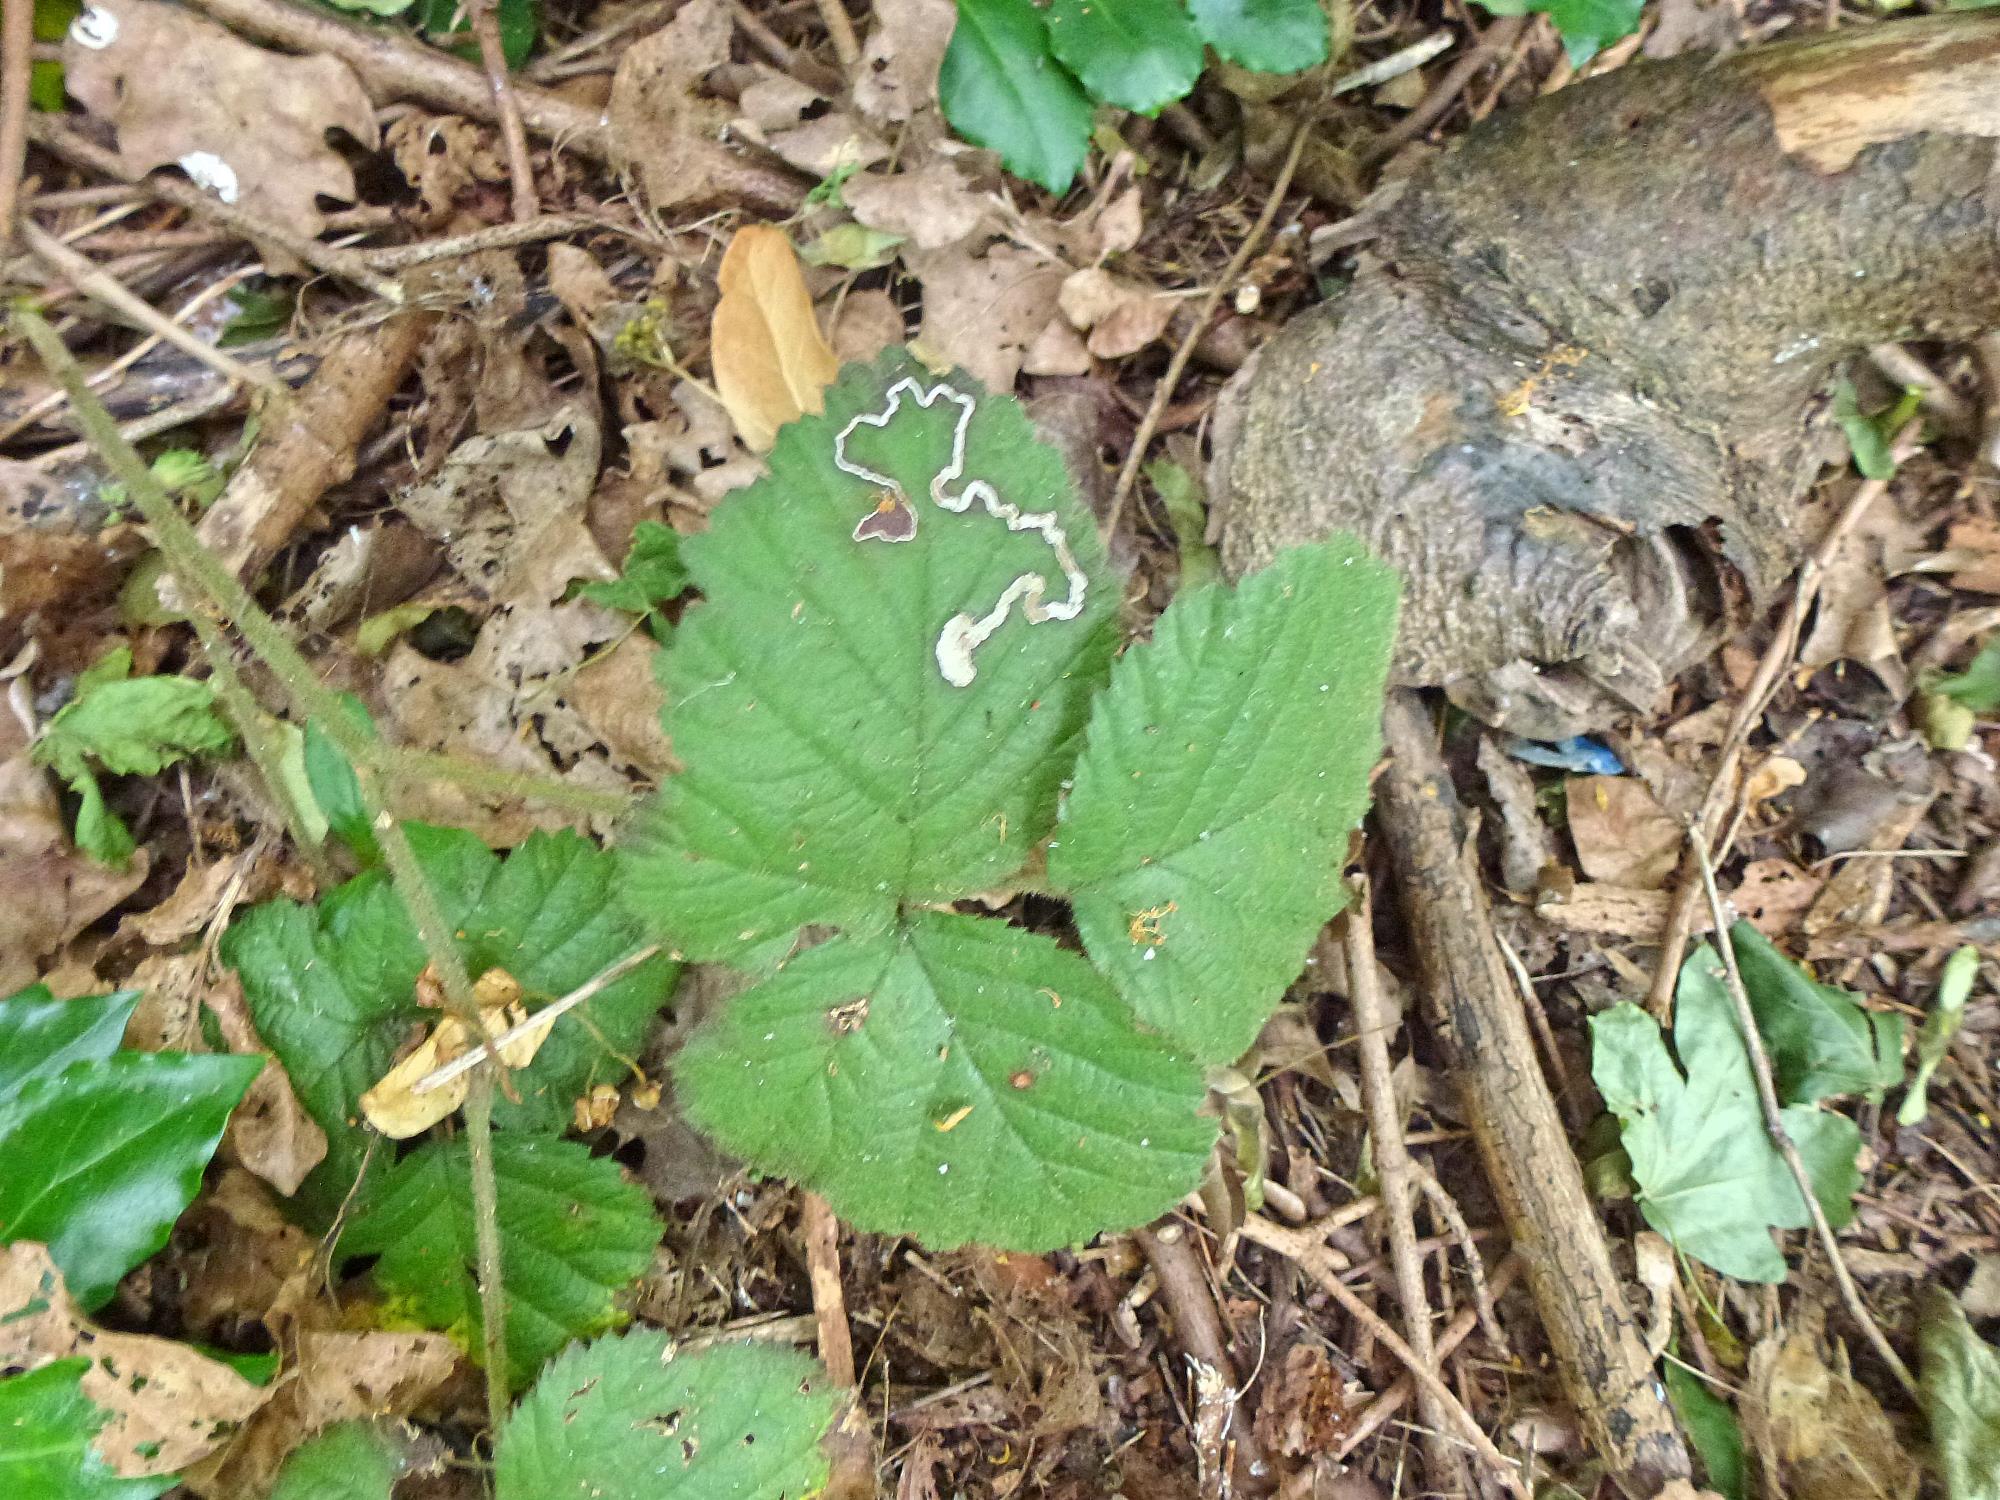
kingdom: Animalia
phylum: Arthropoda
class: Insecta
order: Lepidoptera
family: Nepticulidae
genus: Stigmella
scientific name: Stigmella aurella
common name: Golden pigmy
